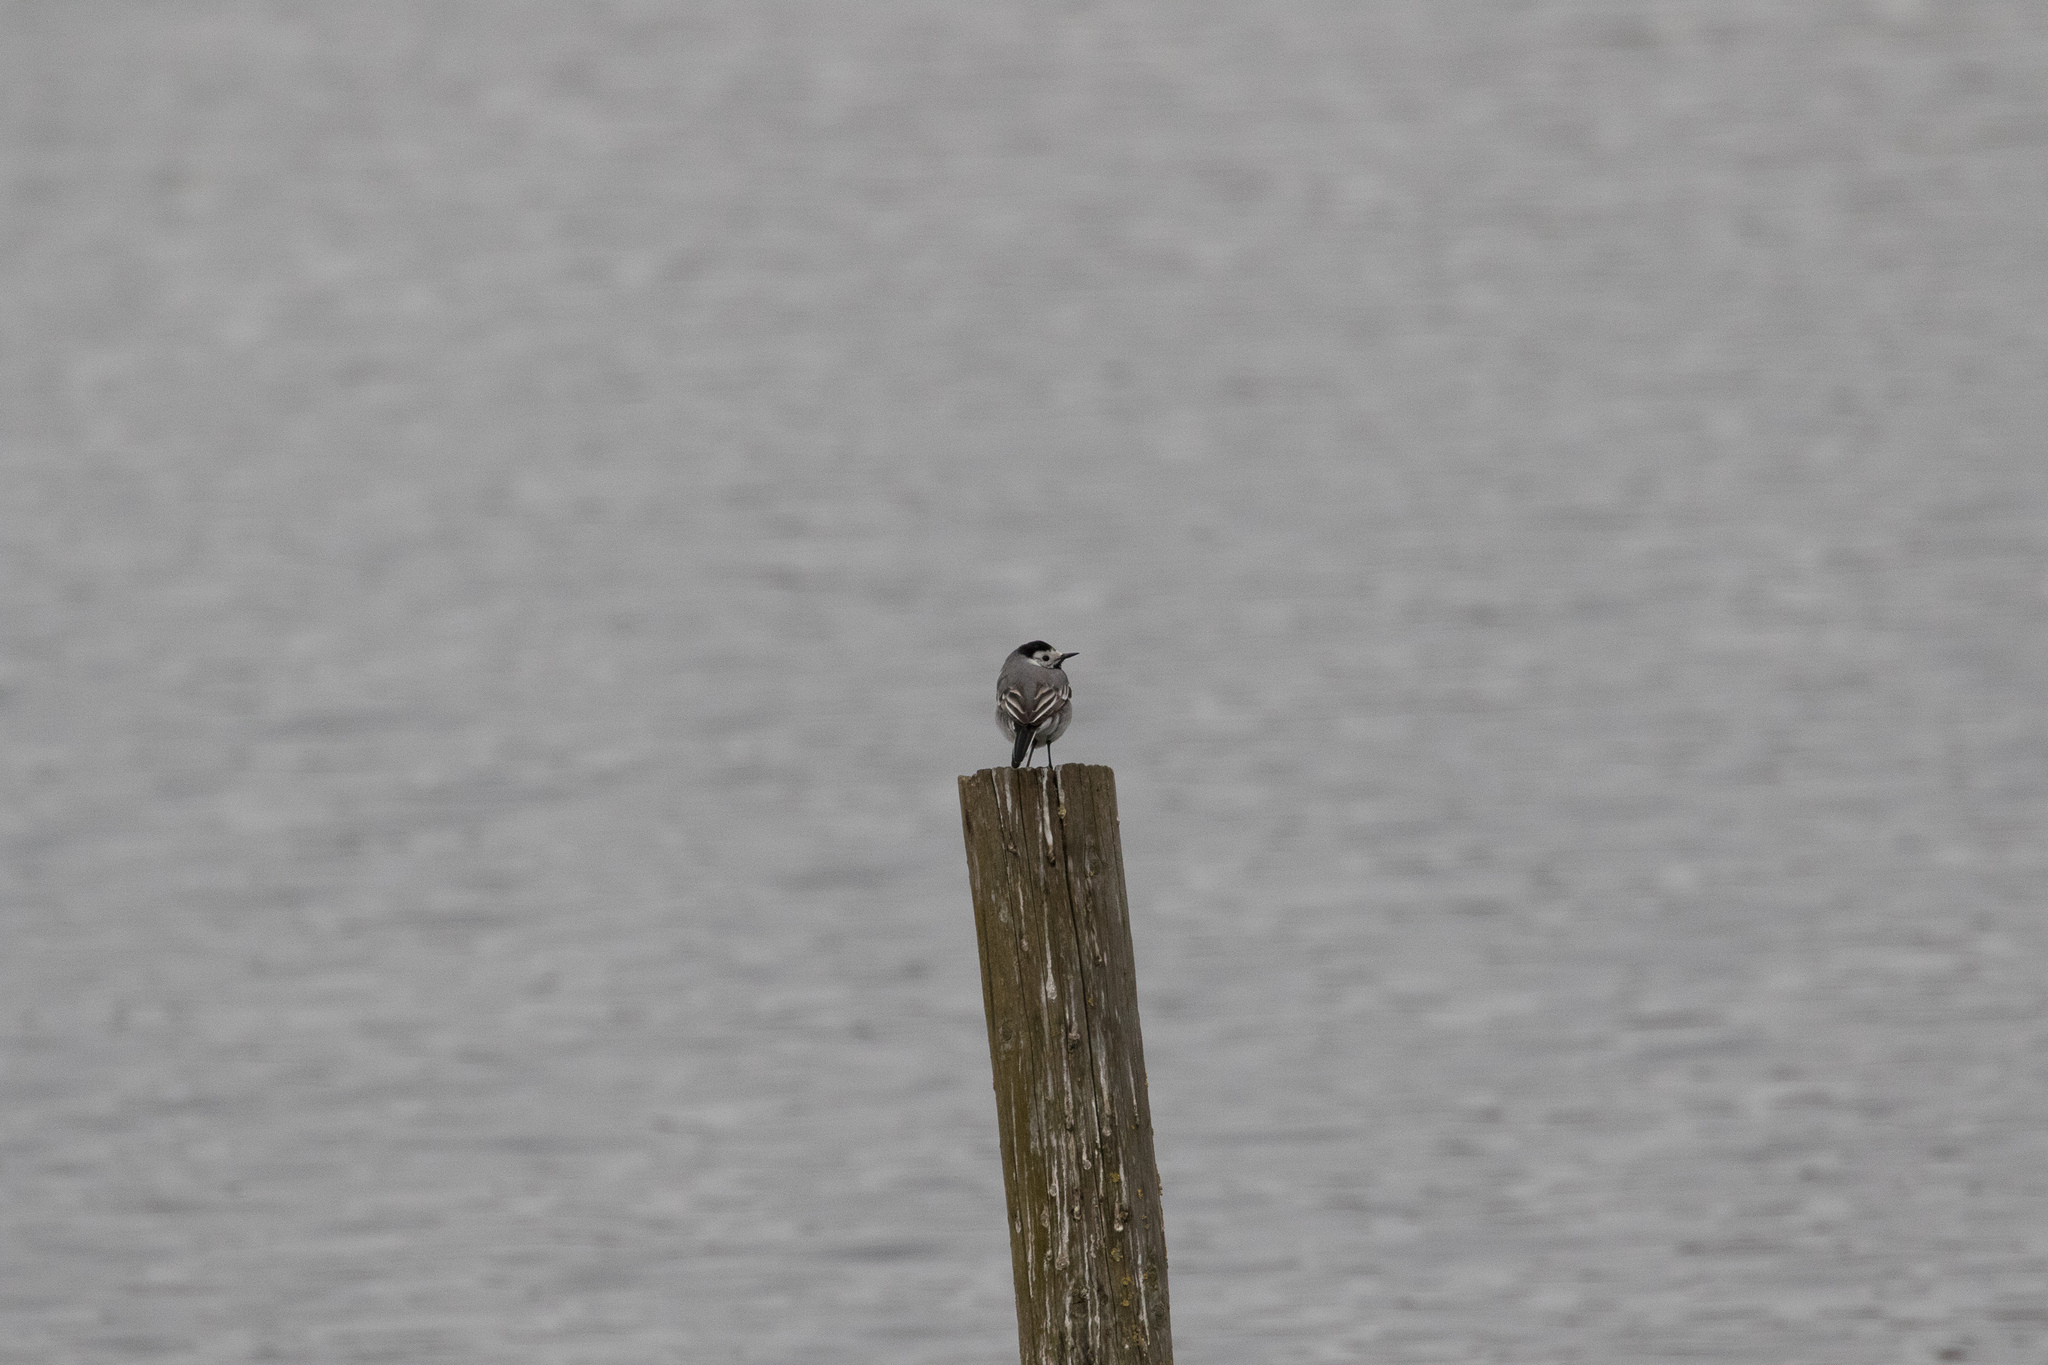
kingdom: Animalia
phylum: Chordata
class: Aves
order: Passeriformes
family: Motacillidae
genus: Motacilla
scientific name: Motacilla alba
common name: White wagtail
